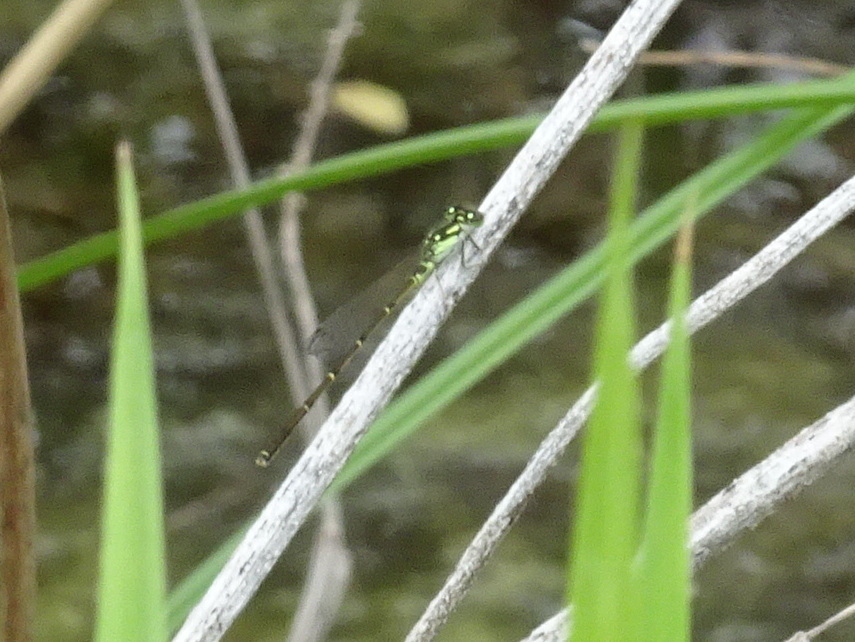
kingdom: Animalia
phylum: Arthropoda
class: Insecta
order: Odonata
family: Coenagrionidae
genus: Ischnura
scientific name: Ischnura posita
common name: Fragile forktail
